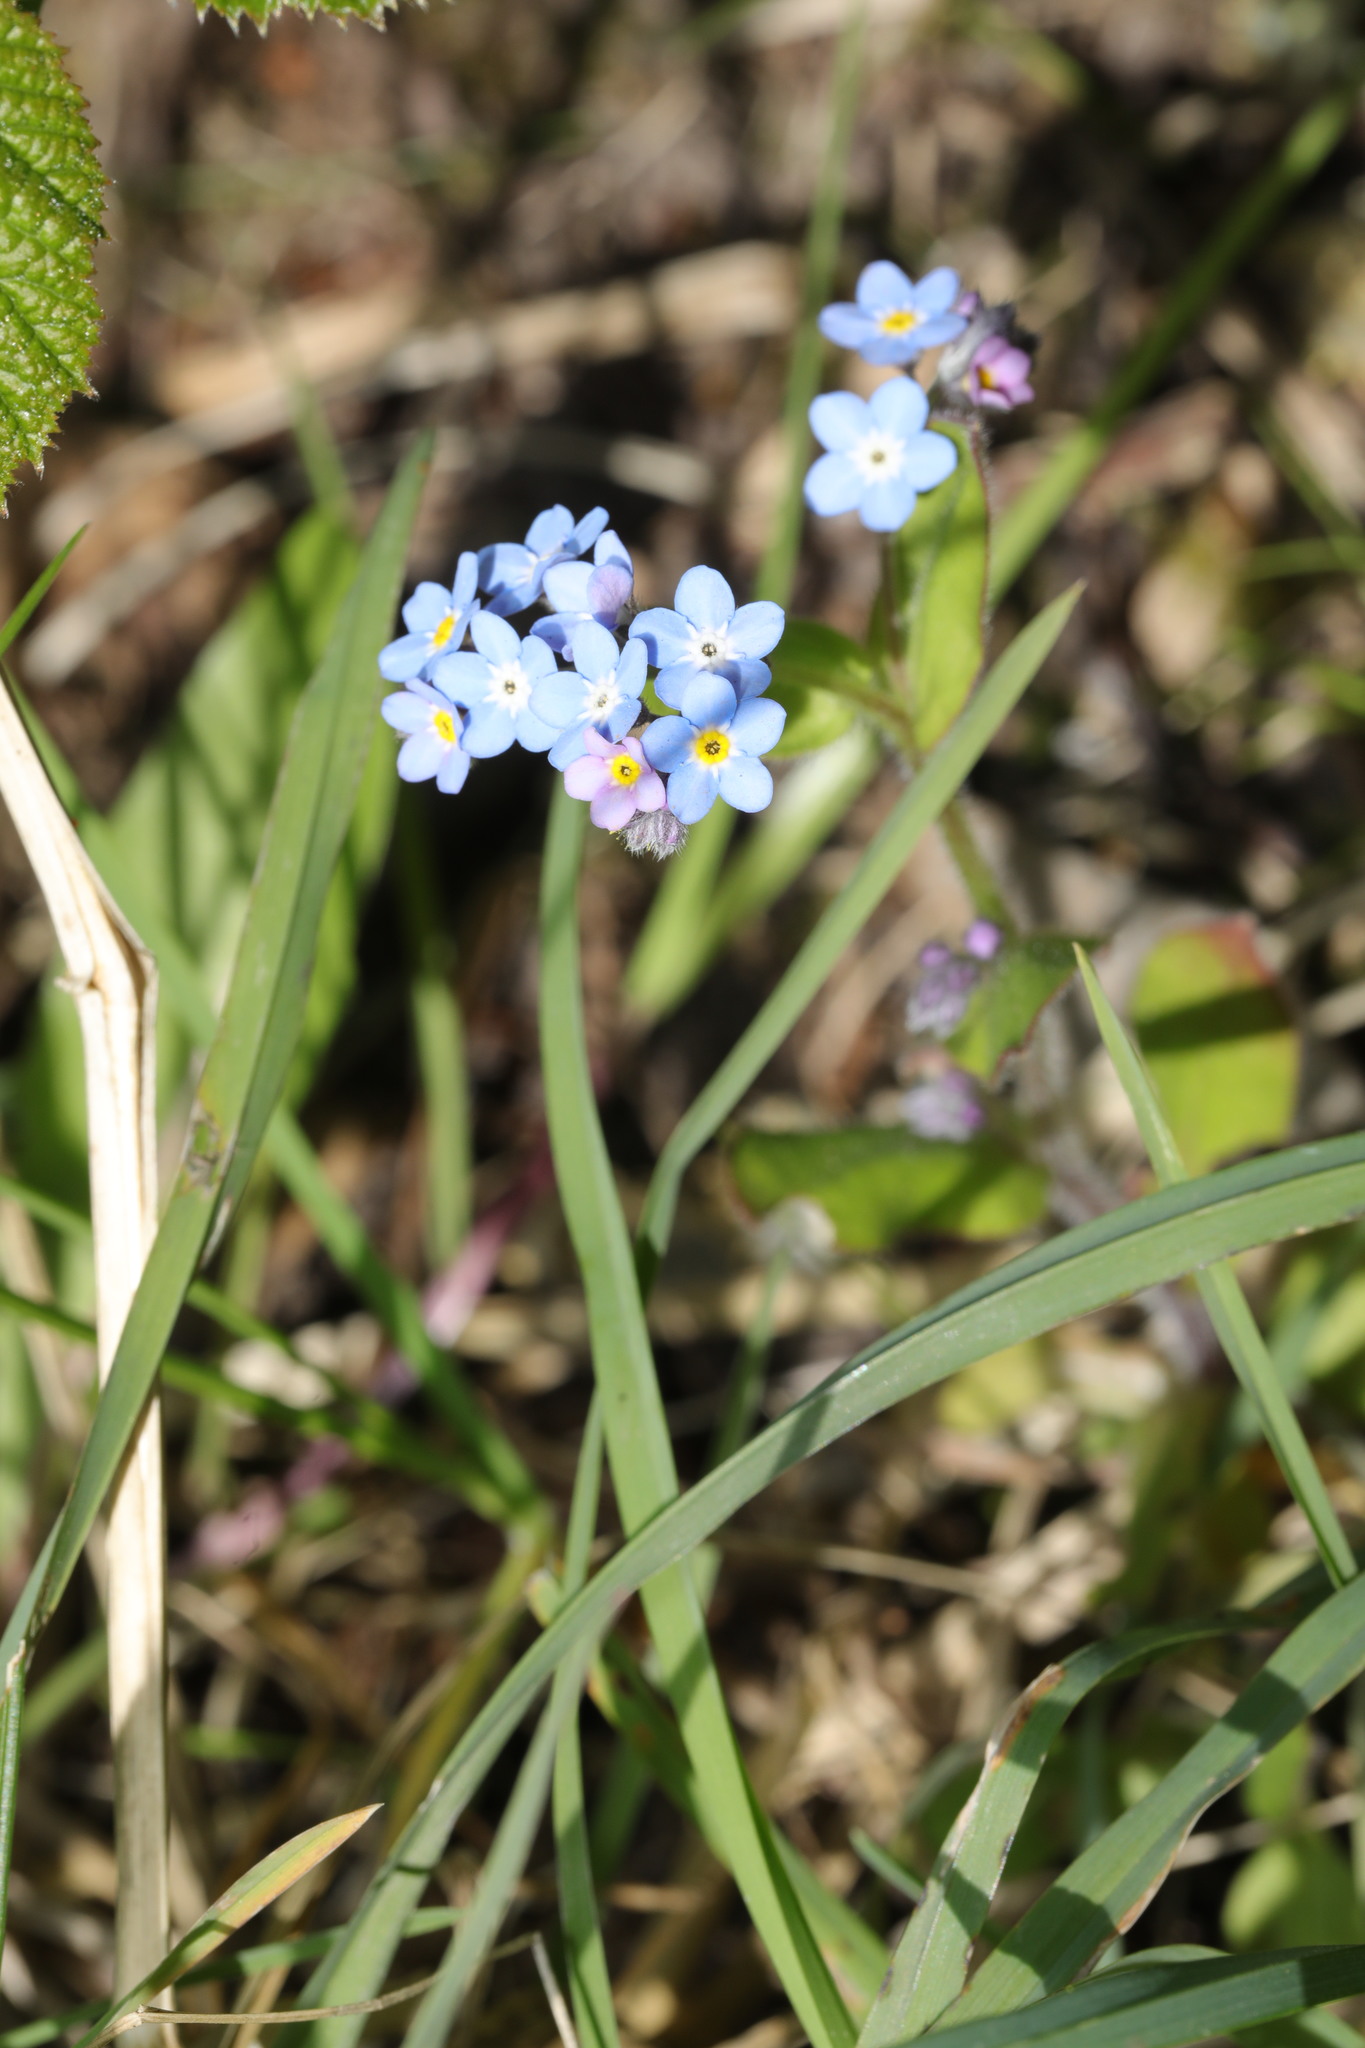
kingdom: Plantae
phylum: Tracheophyta
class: Magnoliopsida
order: Boraginales
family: Boraginaceae
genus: Myosotis
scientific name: Myosotis sylvatica
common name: Wood forget-me-not
